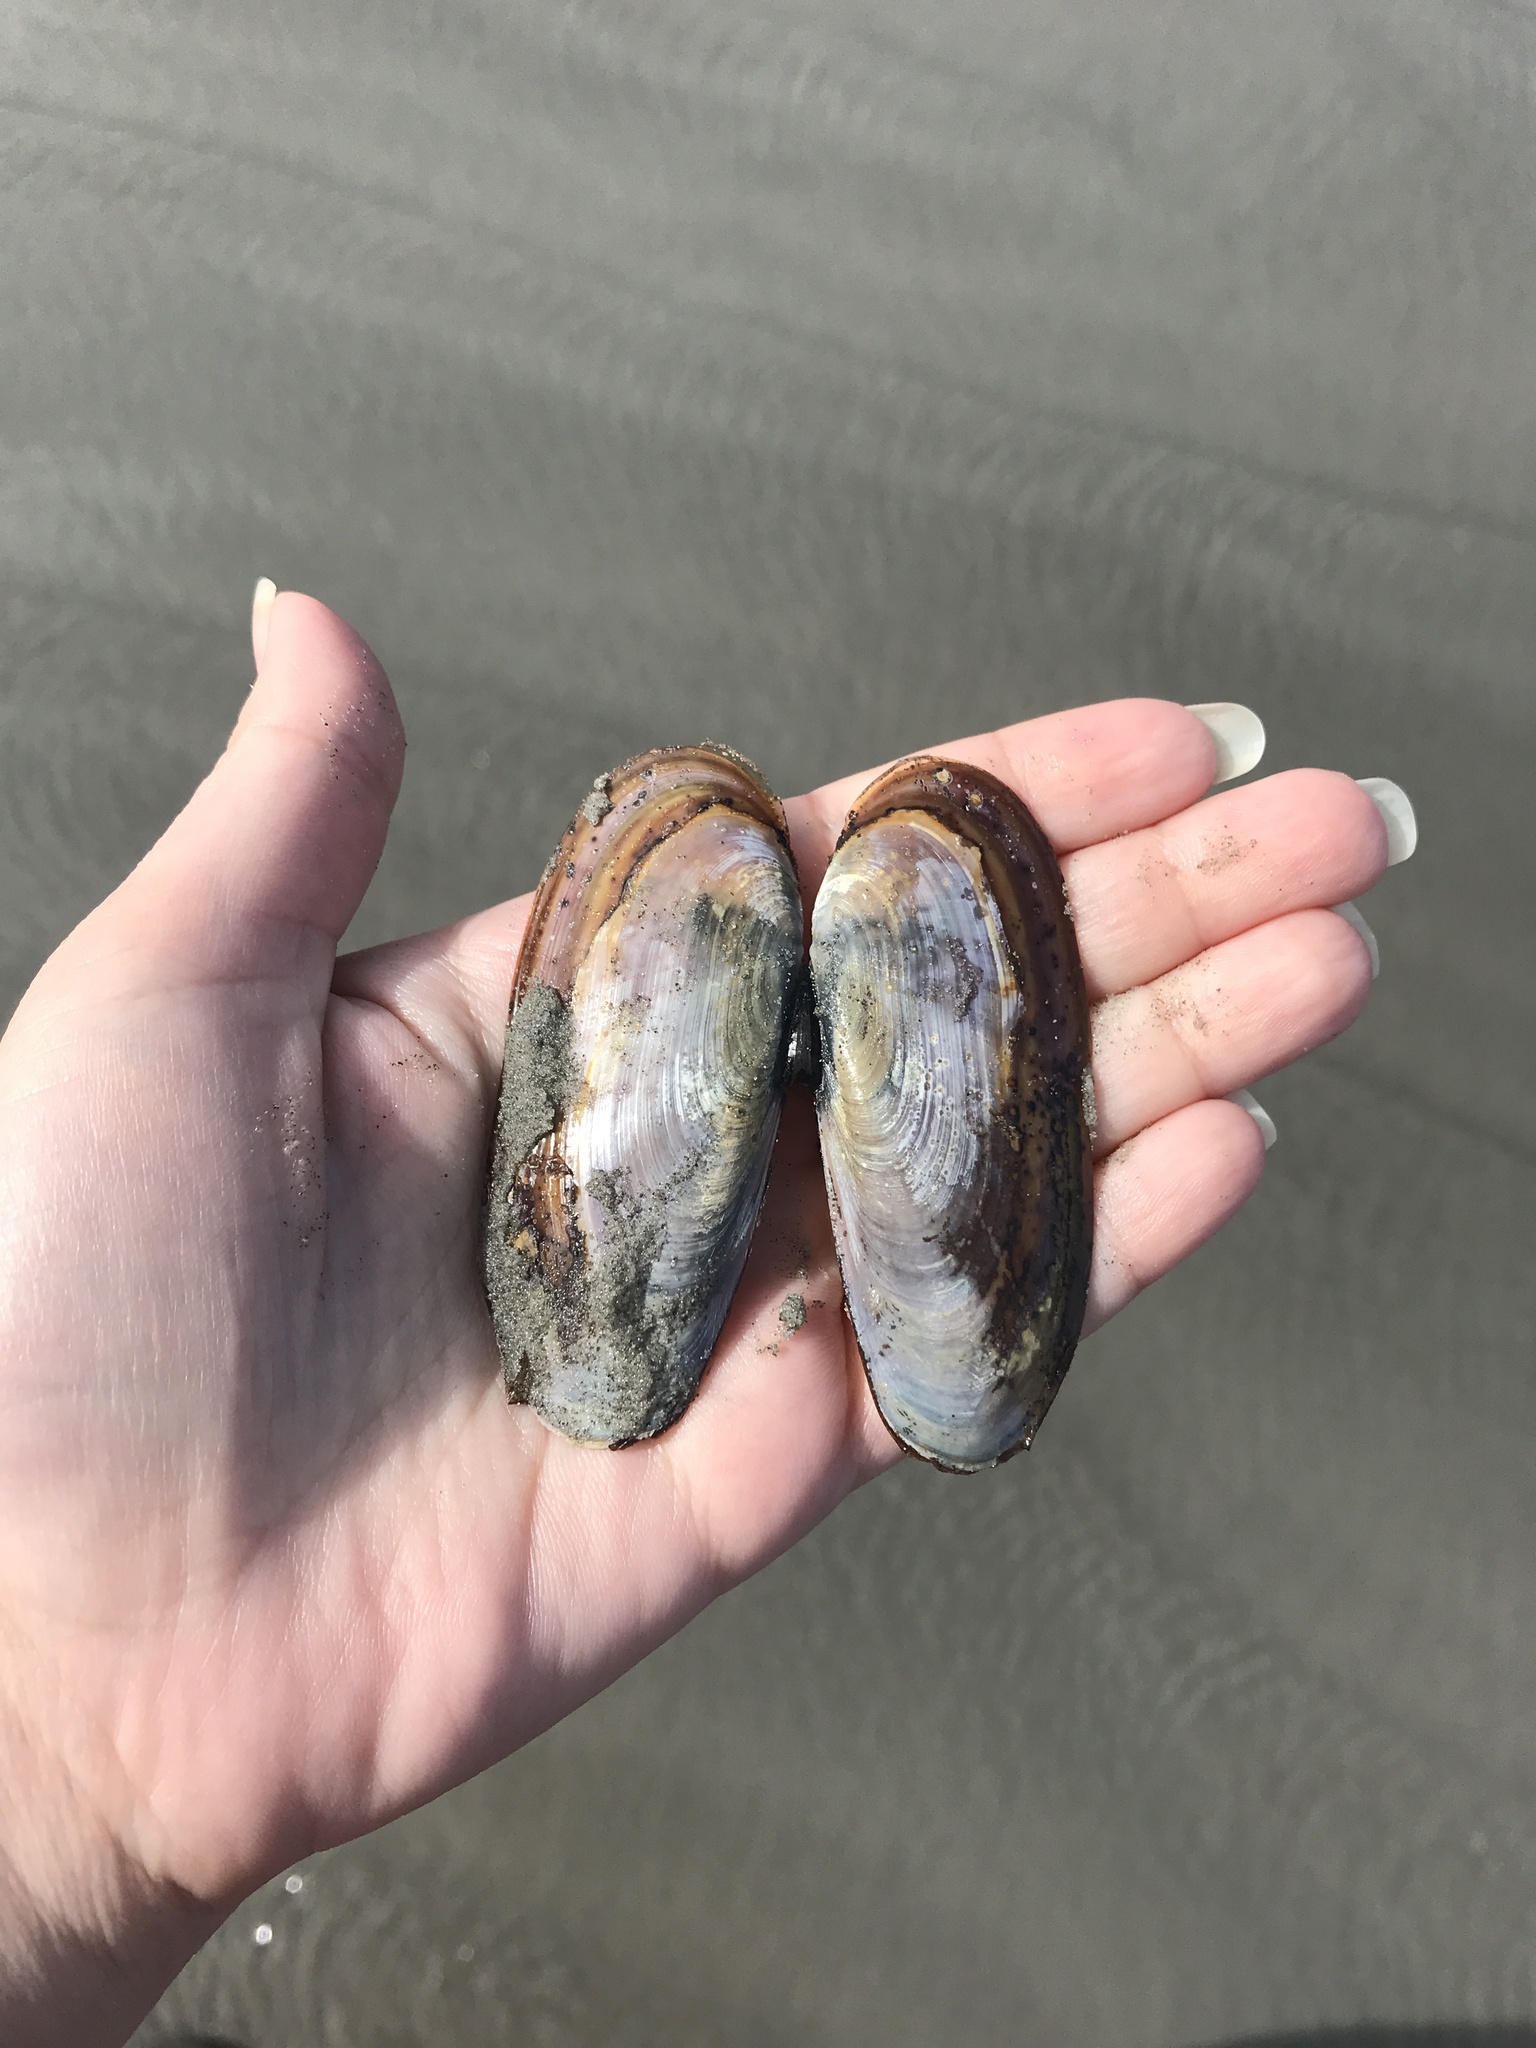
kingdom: Animalia
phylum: Mollusca
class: Bivalvia
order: Adapedonta
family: Pharidae
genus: Siliqua
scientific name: Siliqua costata
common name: Atlantic razor
